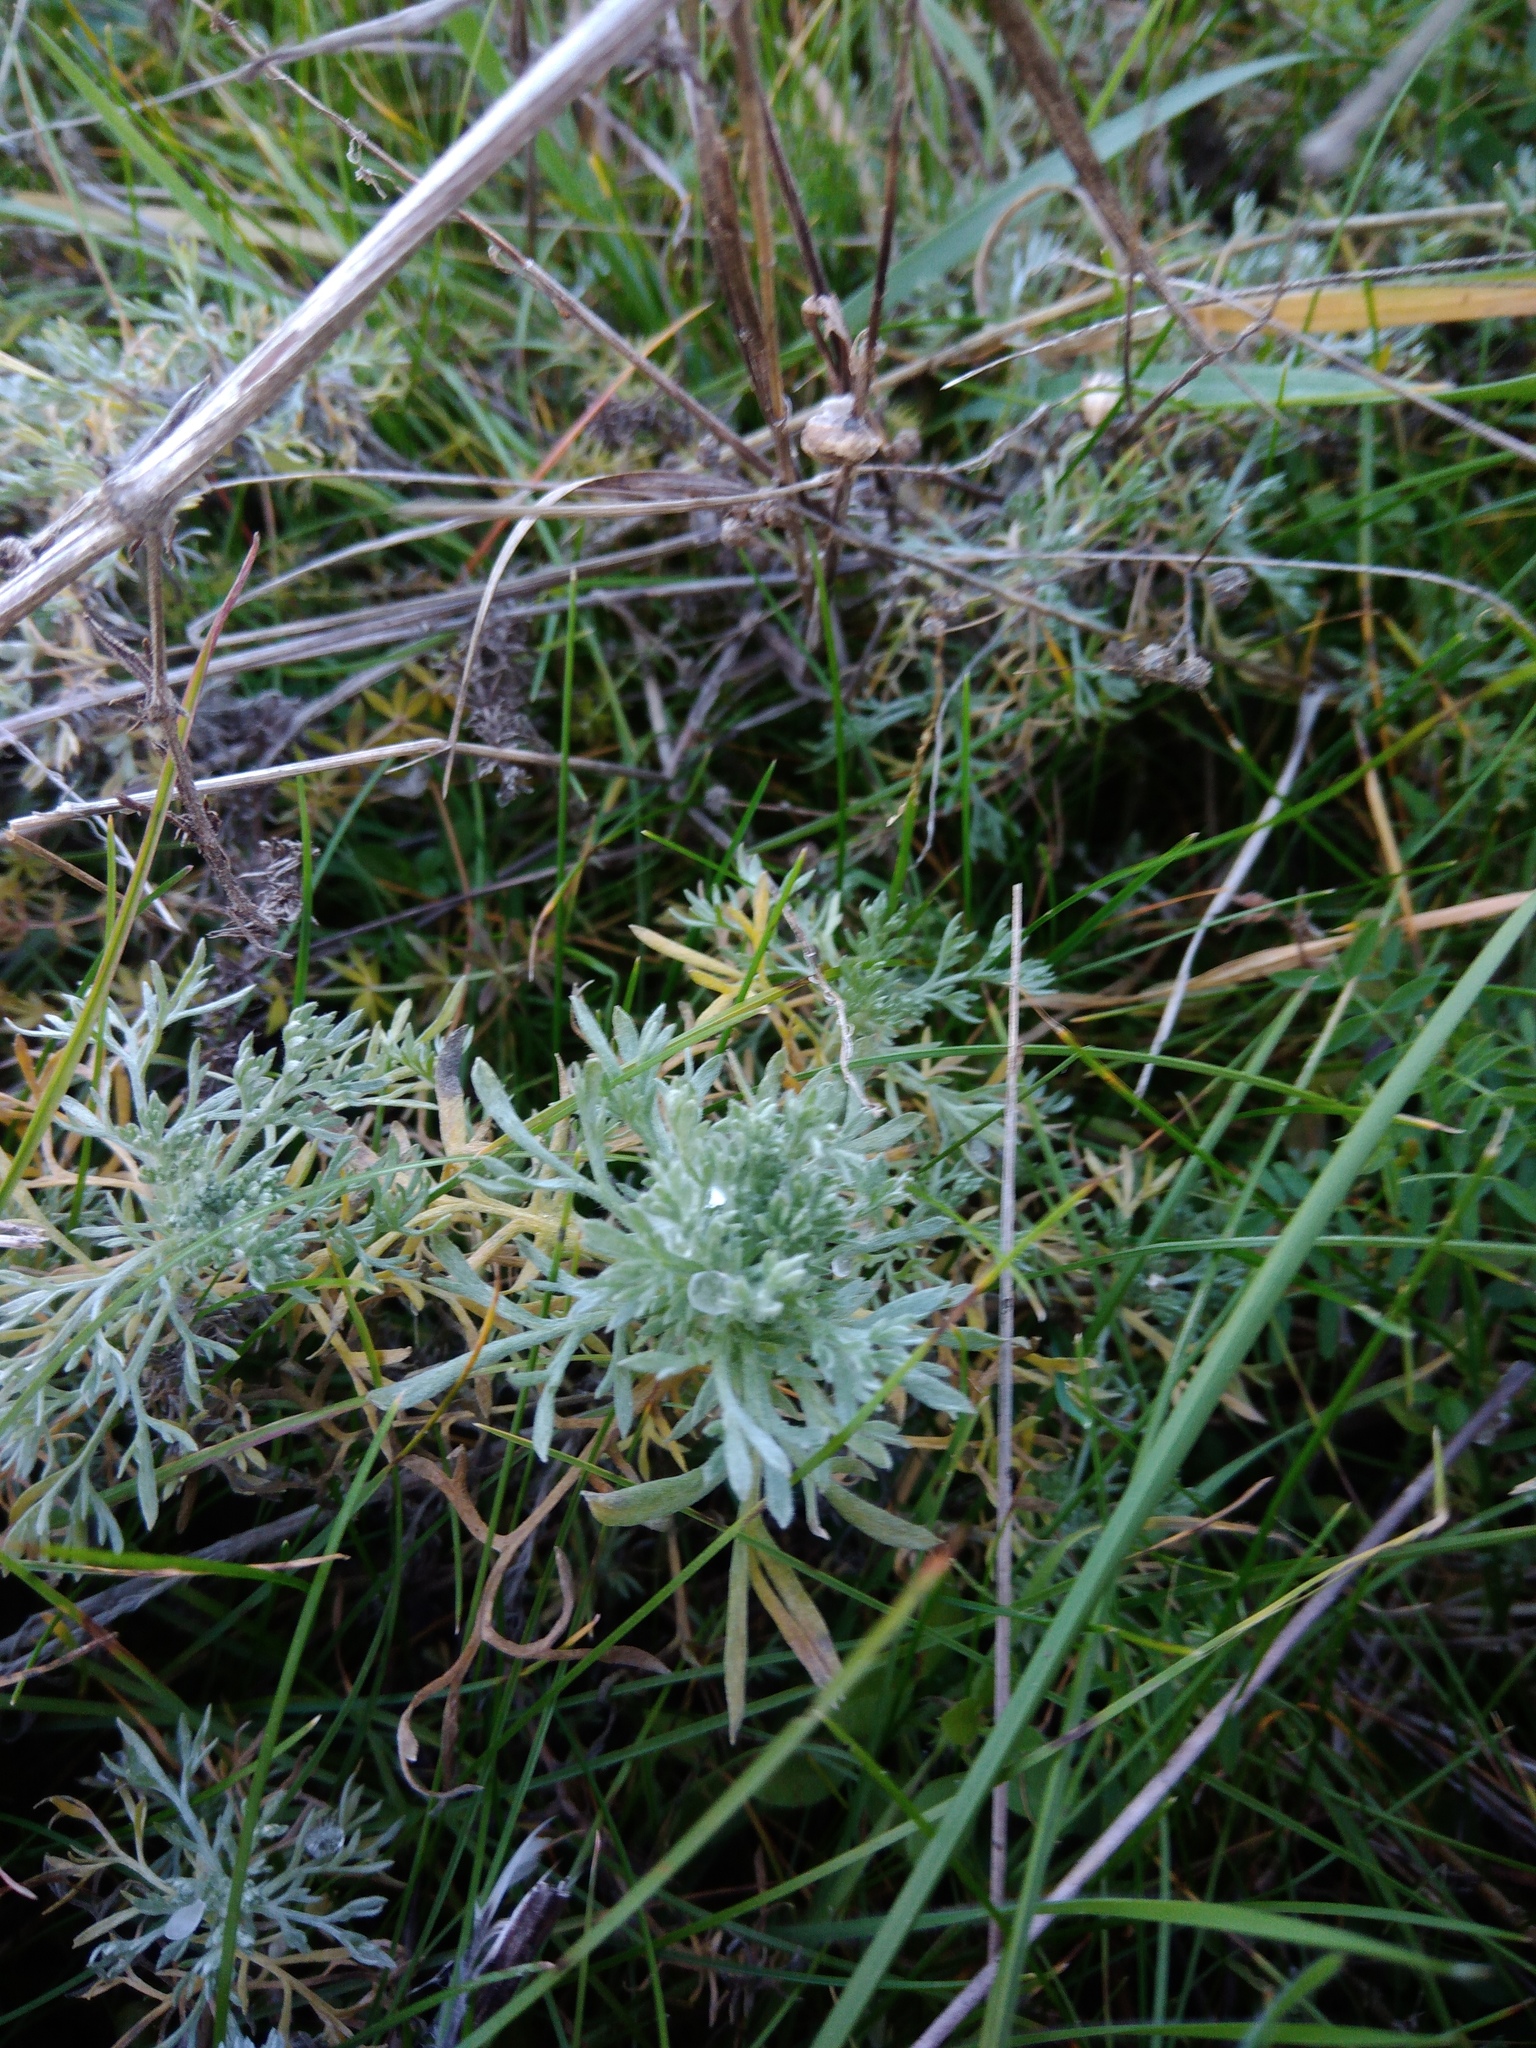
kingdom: Plantae
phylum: Tracheophyta
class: Magnoliopsida
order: Asterales
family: Asteraceae
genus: Artemisia
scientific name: Artemisia austriaca
